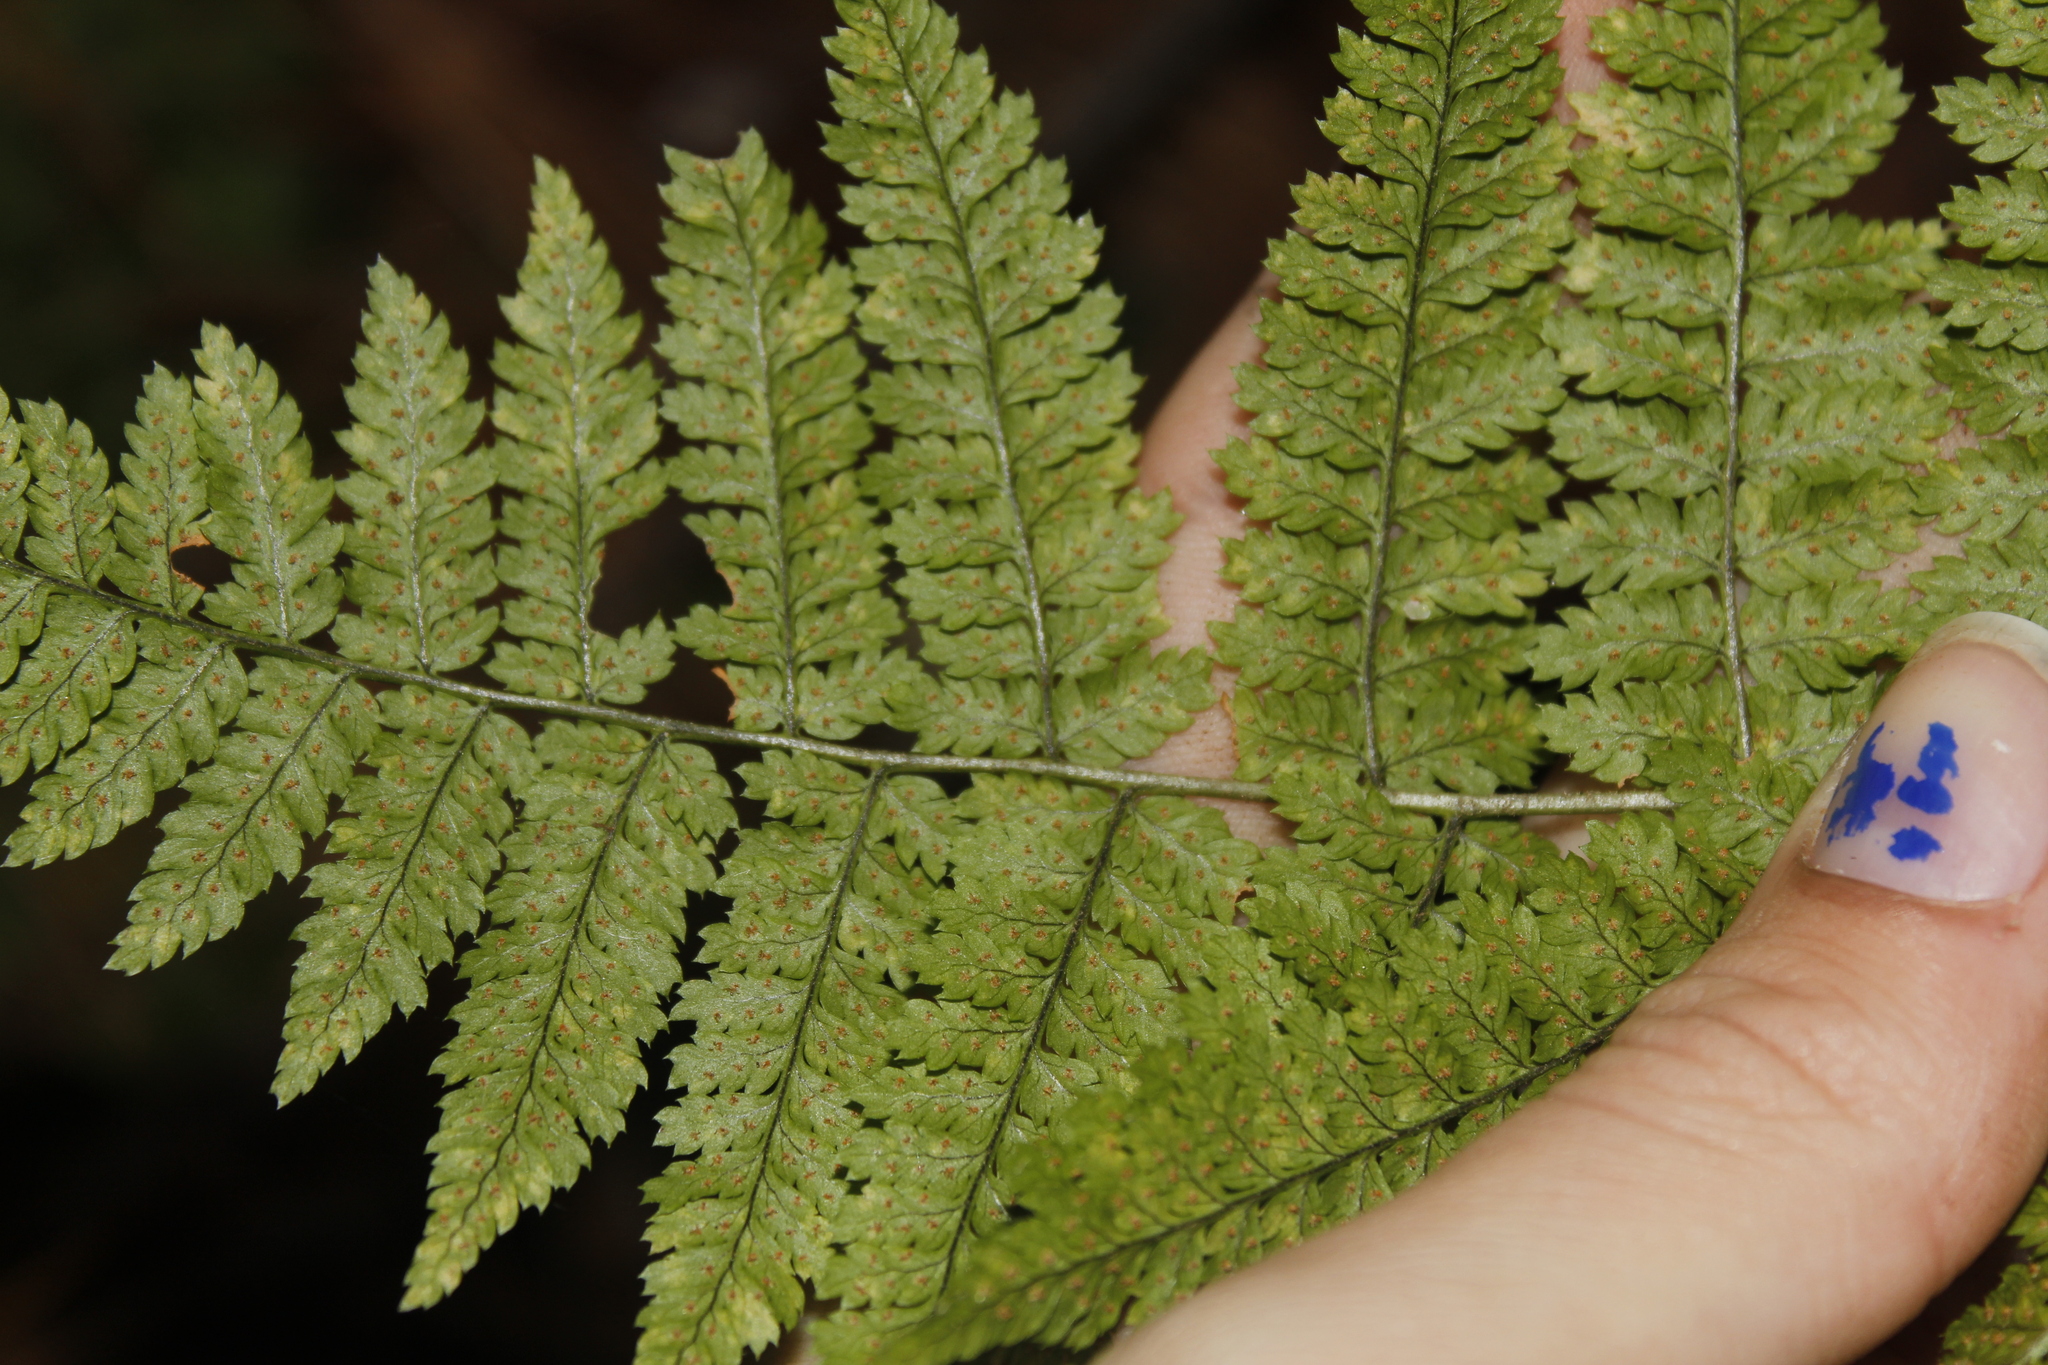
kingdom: Plantae
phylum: Tracheophyta
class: Polypodiopsida
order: Polypodiales
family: Dryopteridaceae
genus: Dryopteris
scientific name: Dryopteris intermedia
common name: Evergreen wood fern
